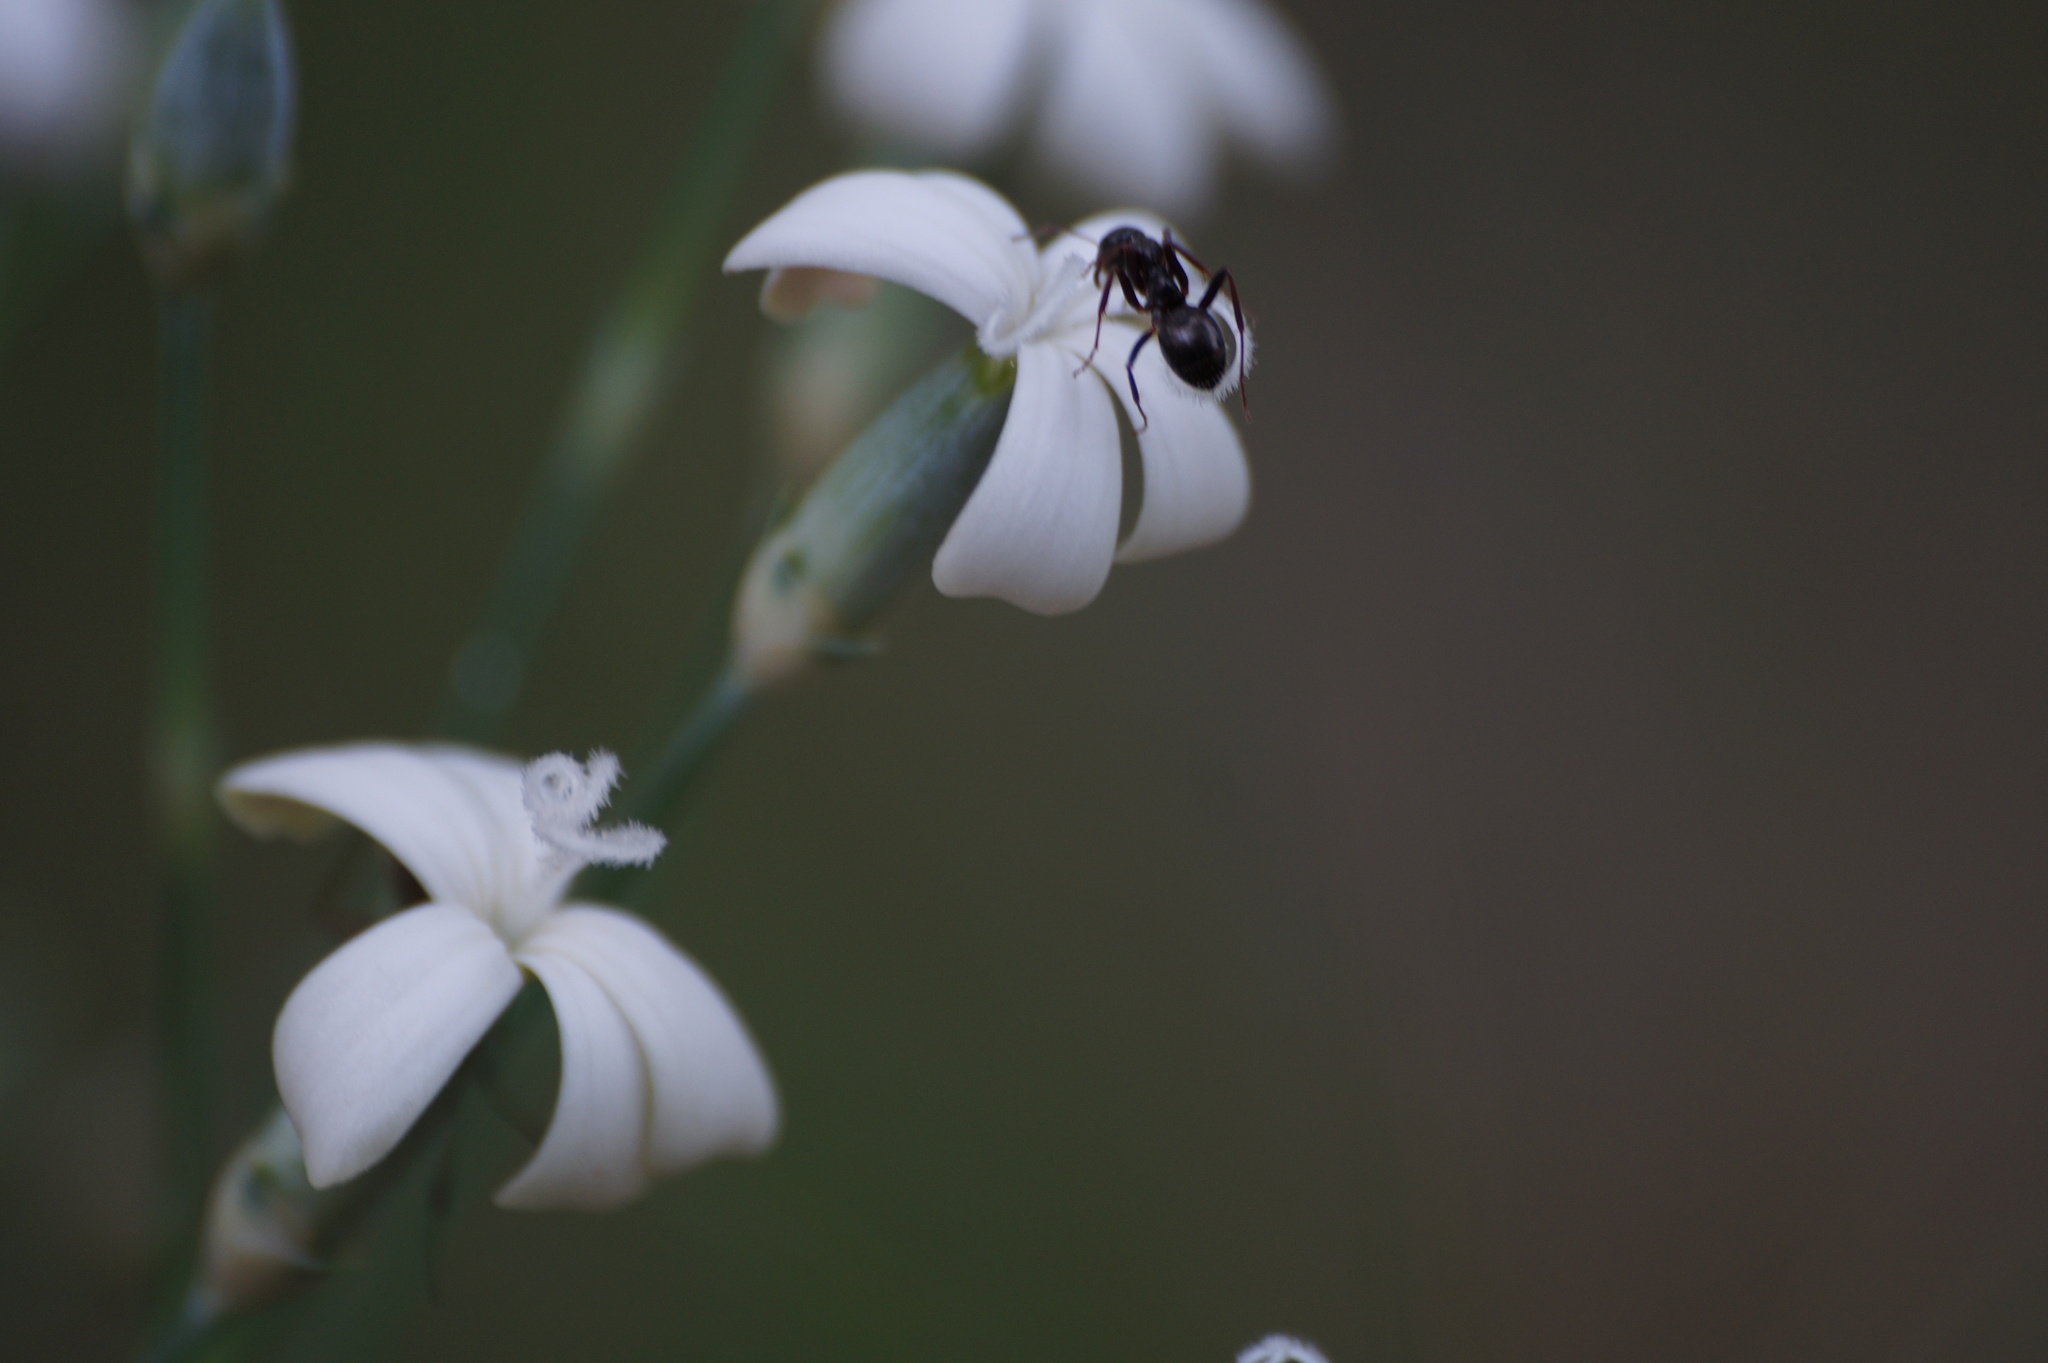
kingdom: Plantae
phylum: Tracheophyta
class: Magnoliopsida
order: Caryophyllales
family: Caryophyllaceae
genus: Dianthus
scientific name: Dianthus marschallii
